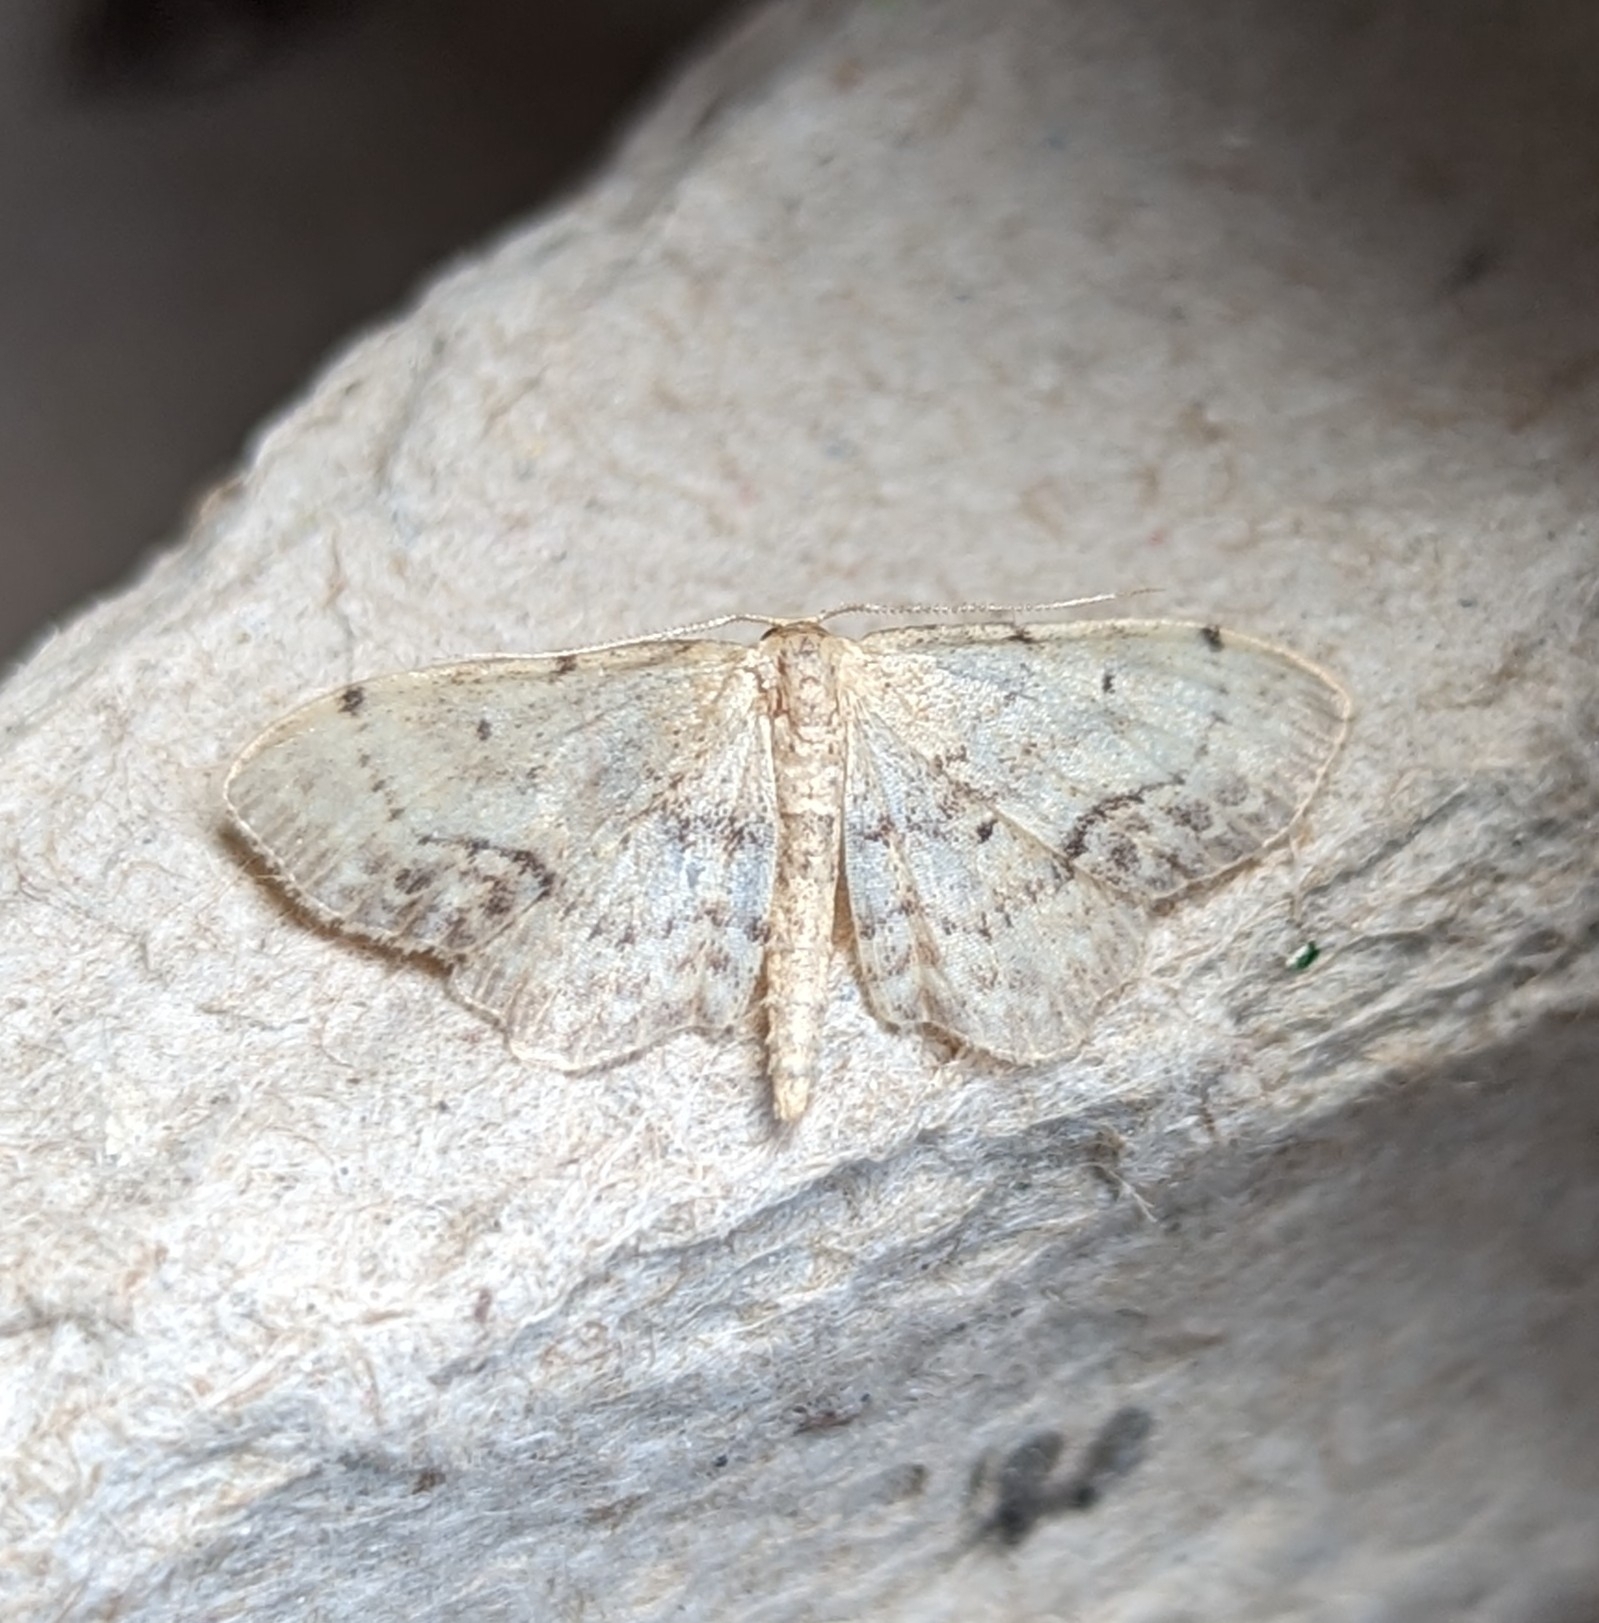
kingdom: Animalia
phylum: Arthropoda
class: Insecta
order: Lepidoptera
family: Geometridae
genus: Idaea
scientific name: Idaea dimidiata
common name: Single-dotted wave
